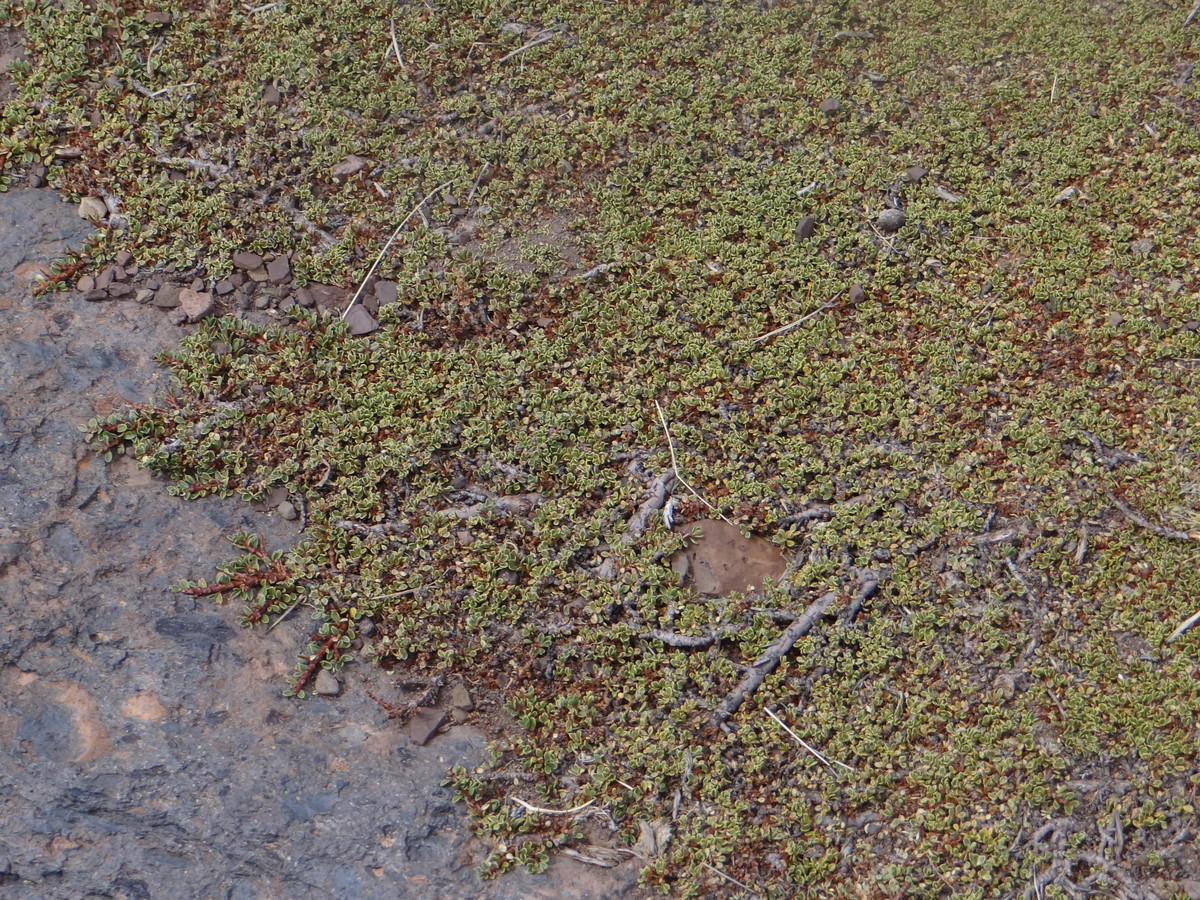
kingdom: Plantae
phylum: Tracheophyta
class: Magnoliopsida
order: Rosales
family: Rhamnaceae
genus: Discaria
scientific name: Discaria nana
